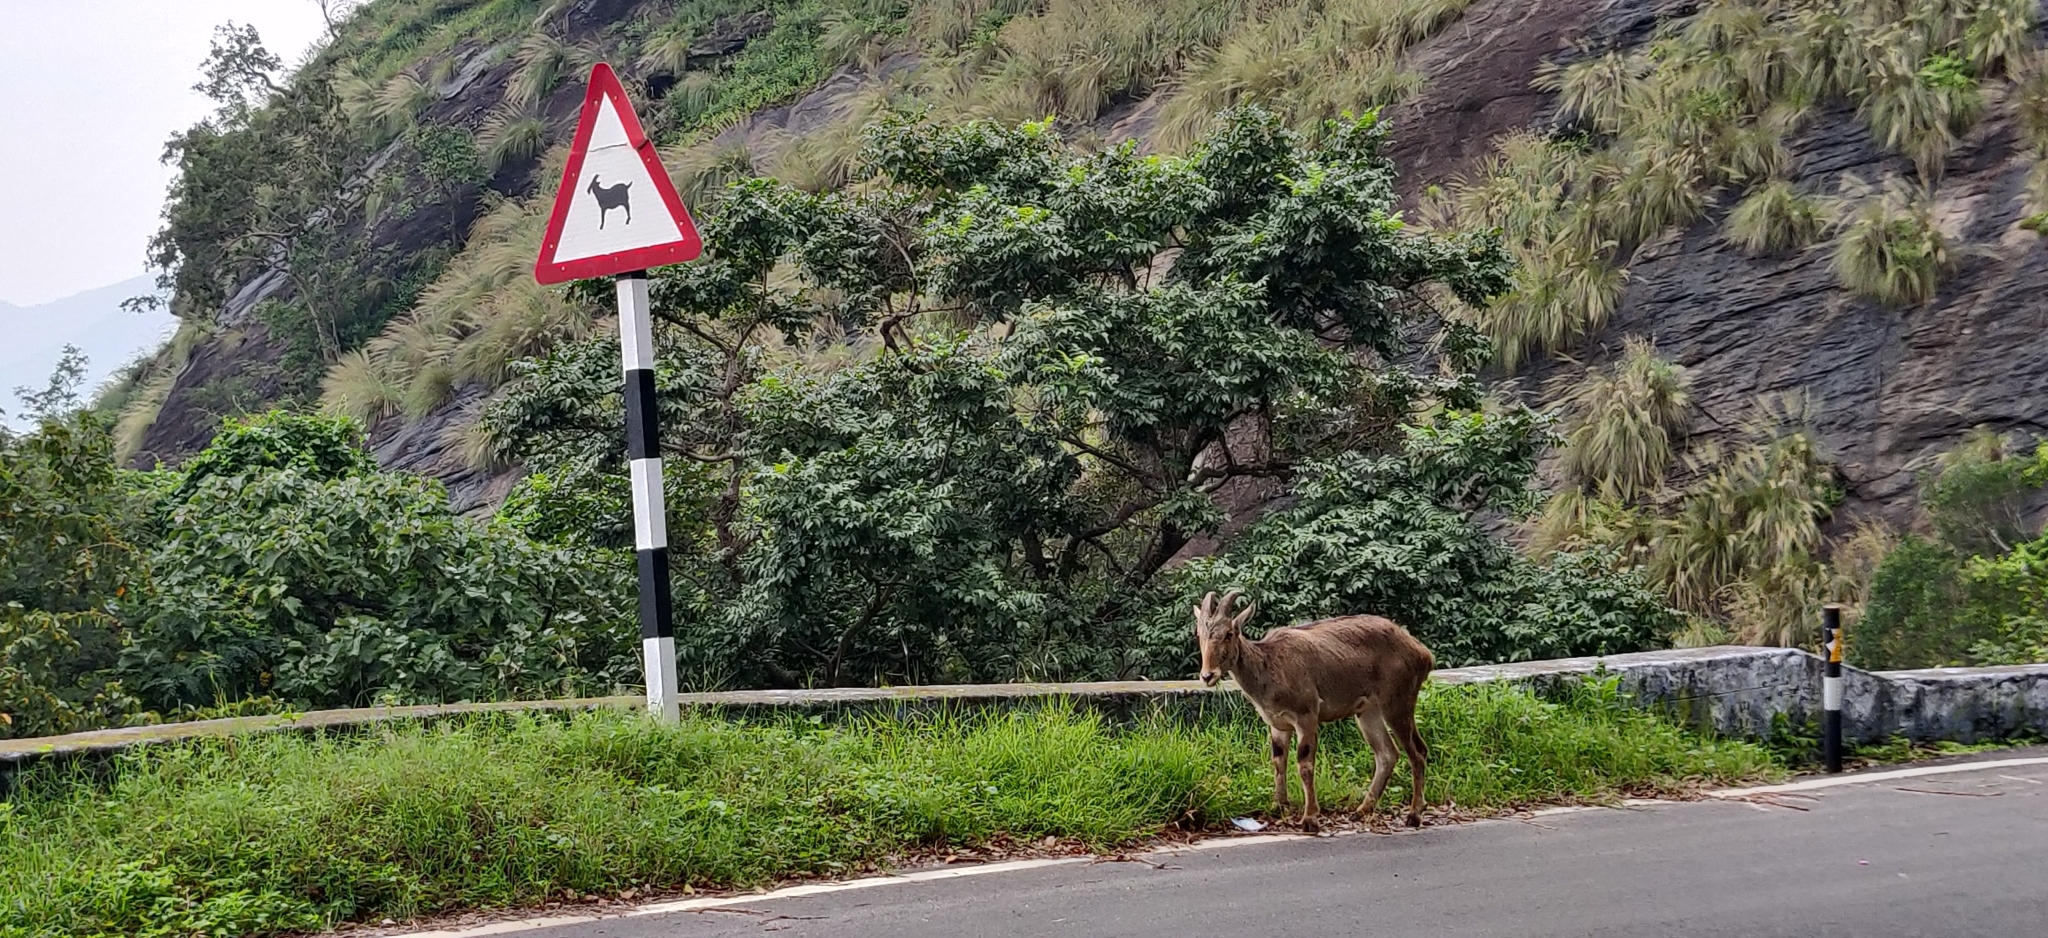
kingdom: Animalia
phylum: Chordata
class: Mammalia
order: Artiodactyla
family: Bovidae
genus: Hemitragus
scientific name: Hemitragus hylocrius
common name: Nilgiri tahr
